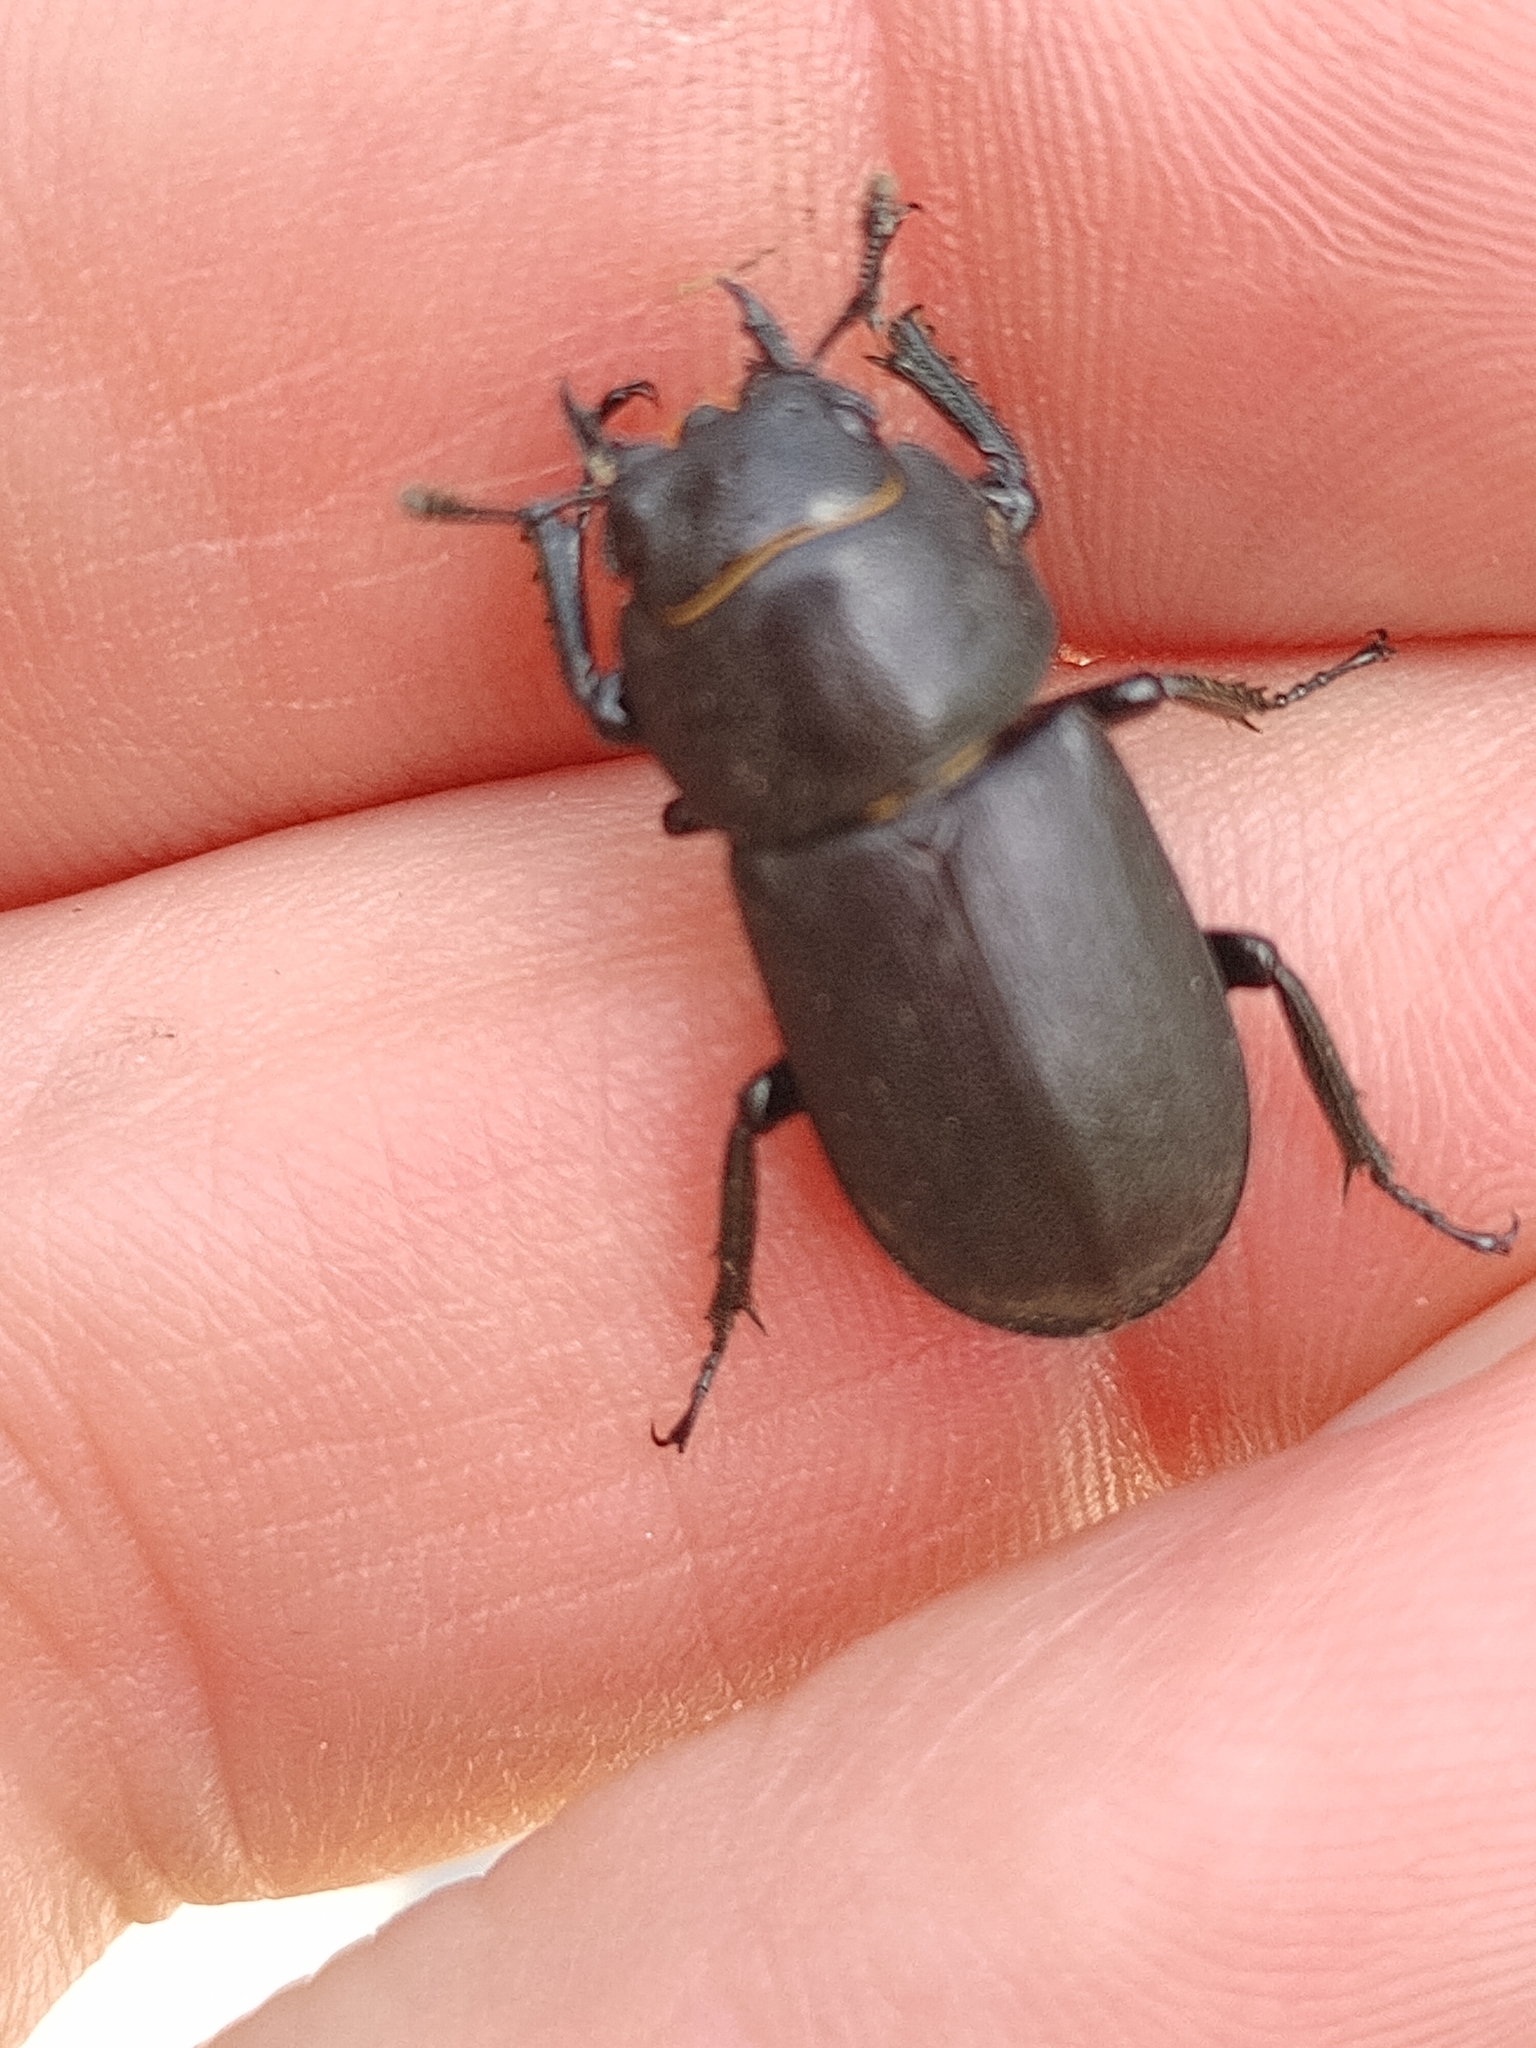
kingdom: Animalia
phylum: Arthropoda
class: Insecta
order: Coleoptera
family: Lucanidae
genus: Dorcus
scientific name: Dorcus parallelipipedus
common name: Lesser stag beetle
